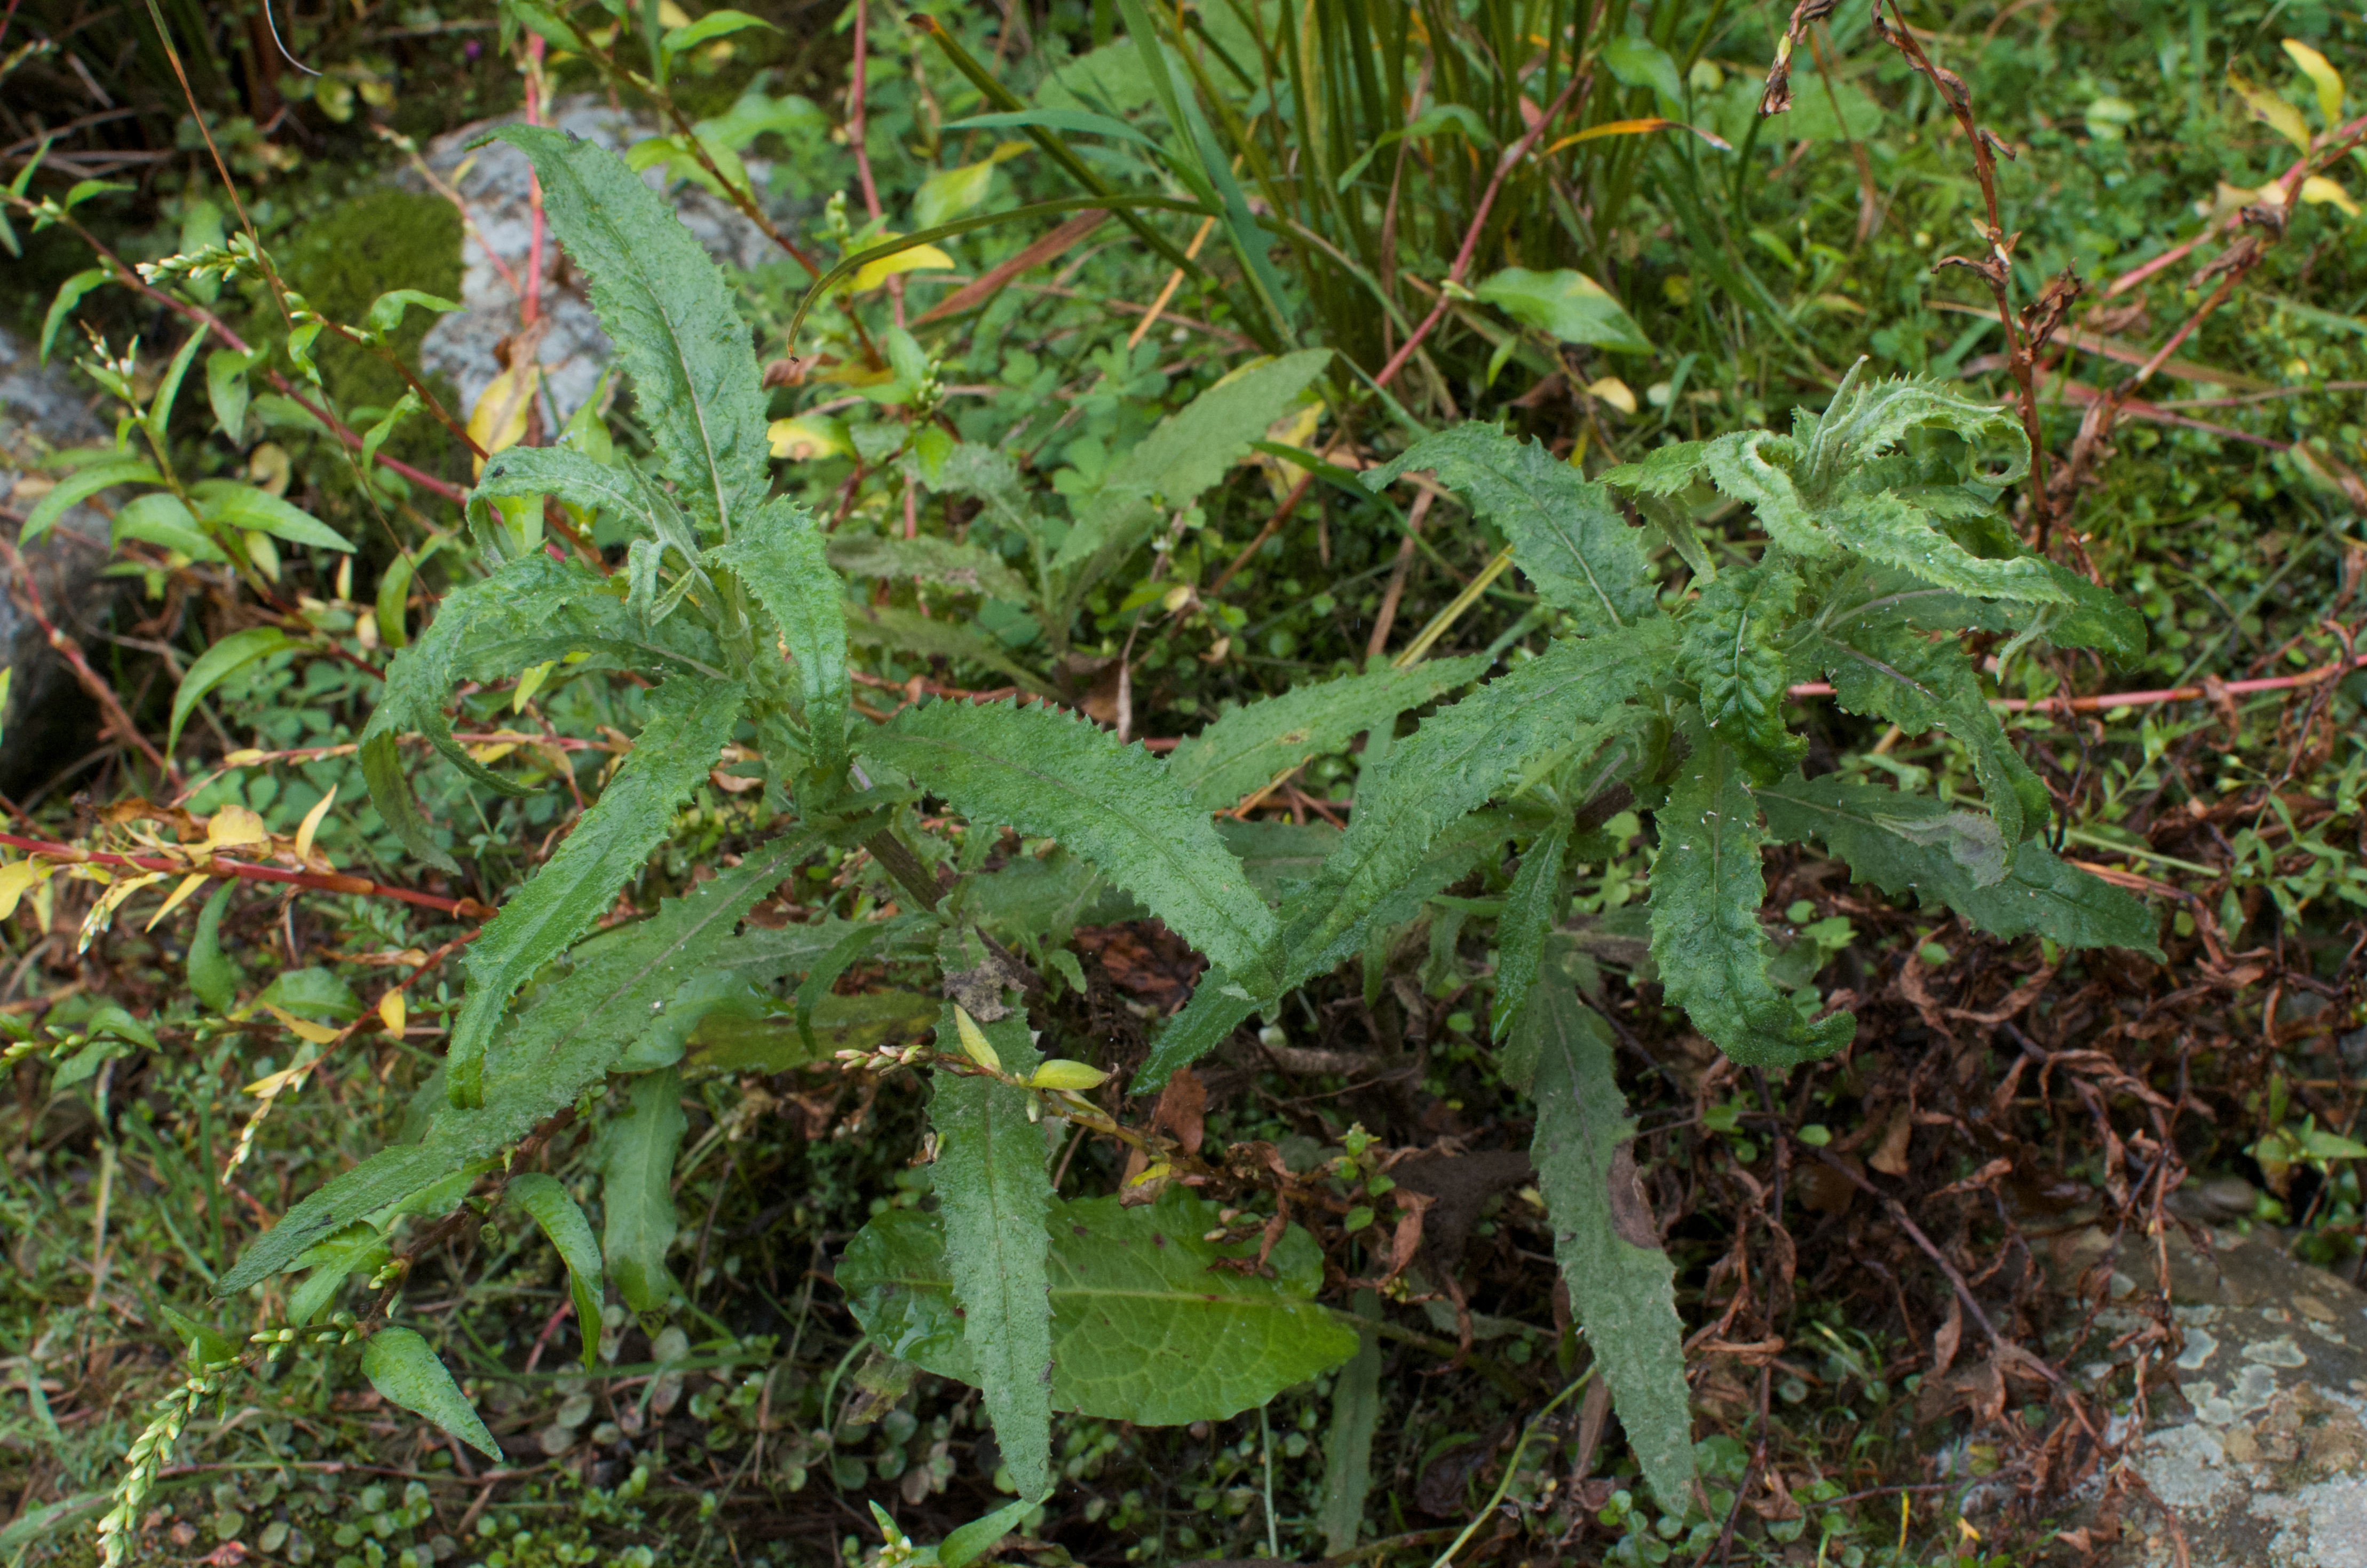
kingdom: Plantae
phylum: Tracheophyta
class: Magnoliopsida
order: Asterales
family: Asteraceae
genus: Senecio
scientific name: Senecio minimus
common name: Toothed fireweed
